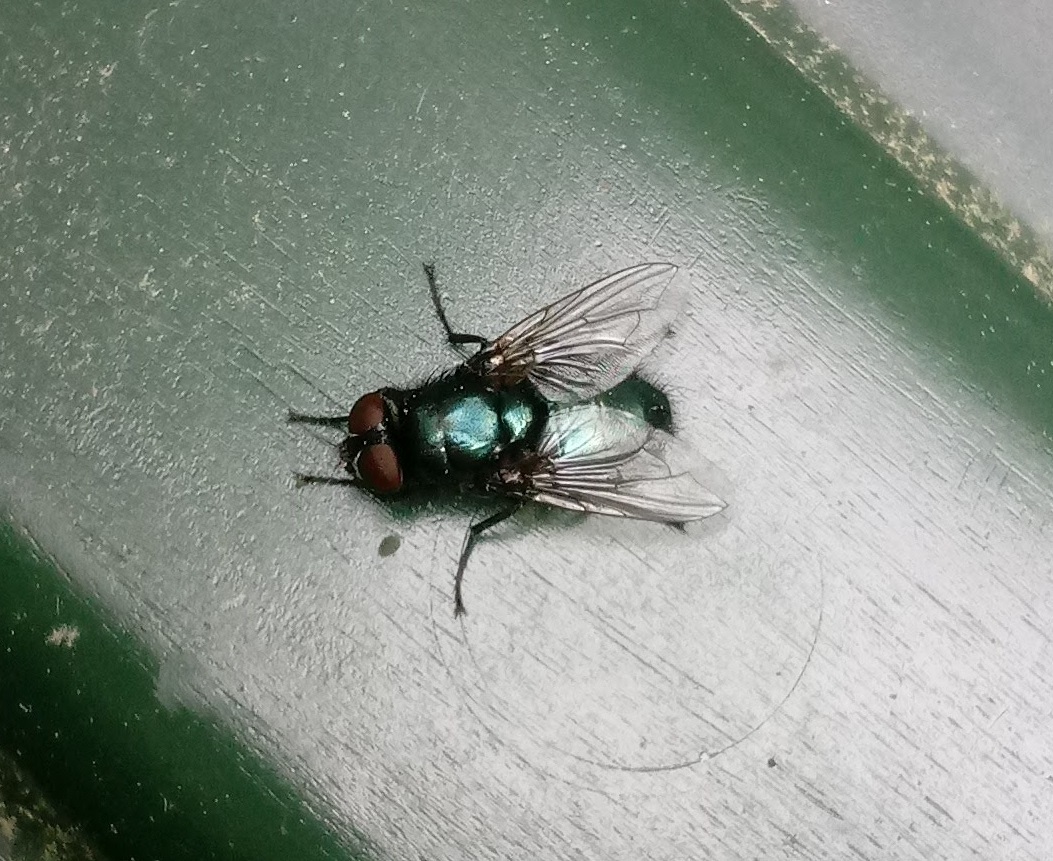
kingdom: Animalia
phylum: Arthropoda
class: Insecta
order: Diptera
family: Calliphoridae
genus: Protophormia
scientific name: Protophormia terraenovae
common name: Blackbottle
